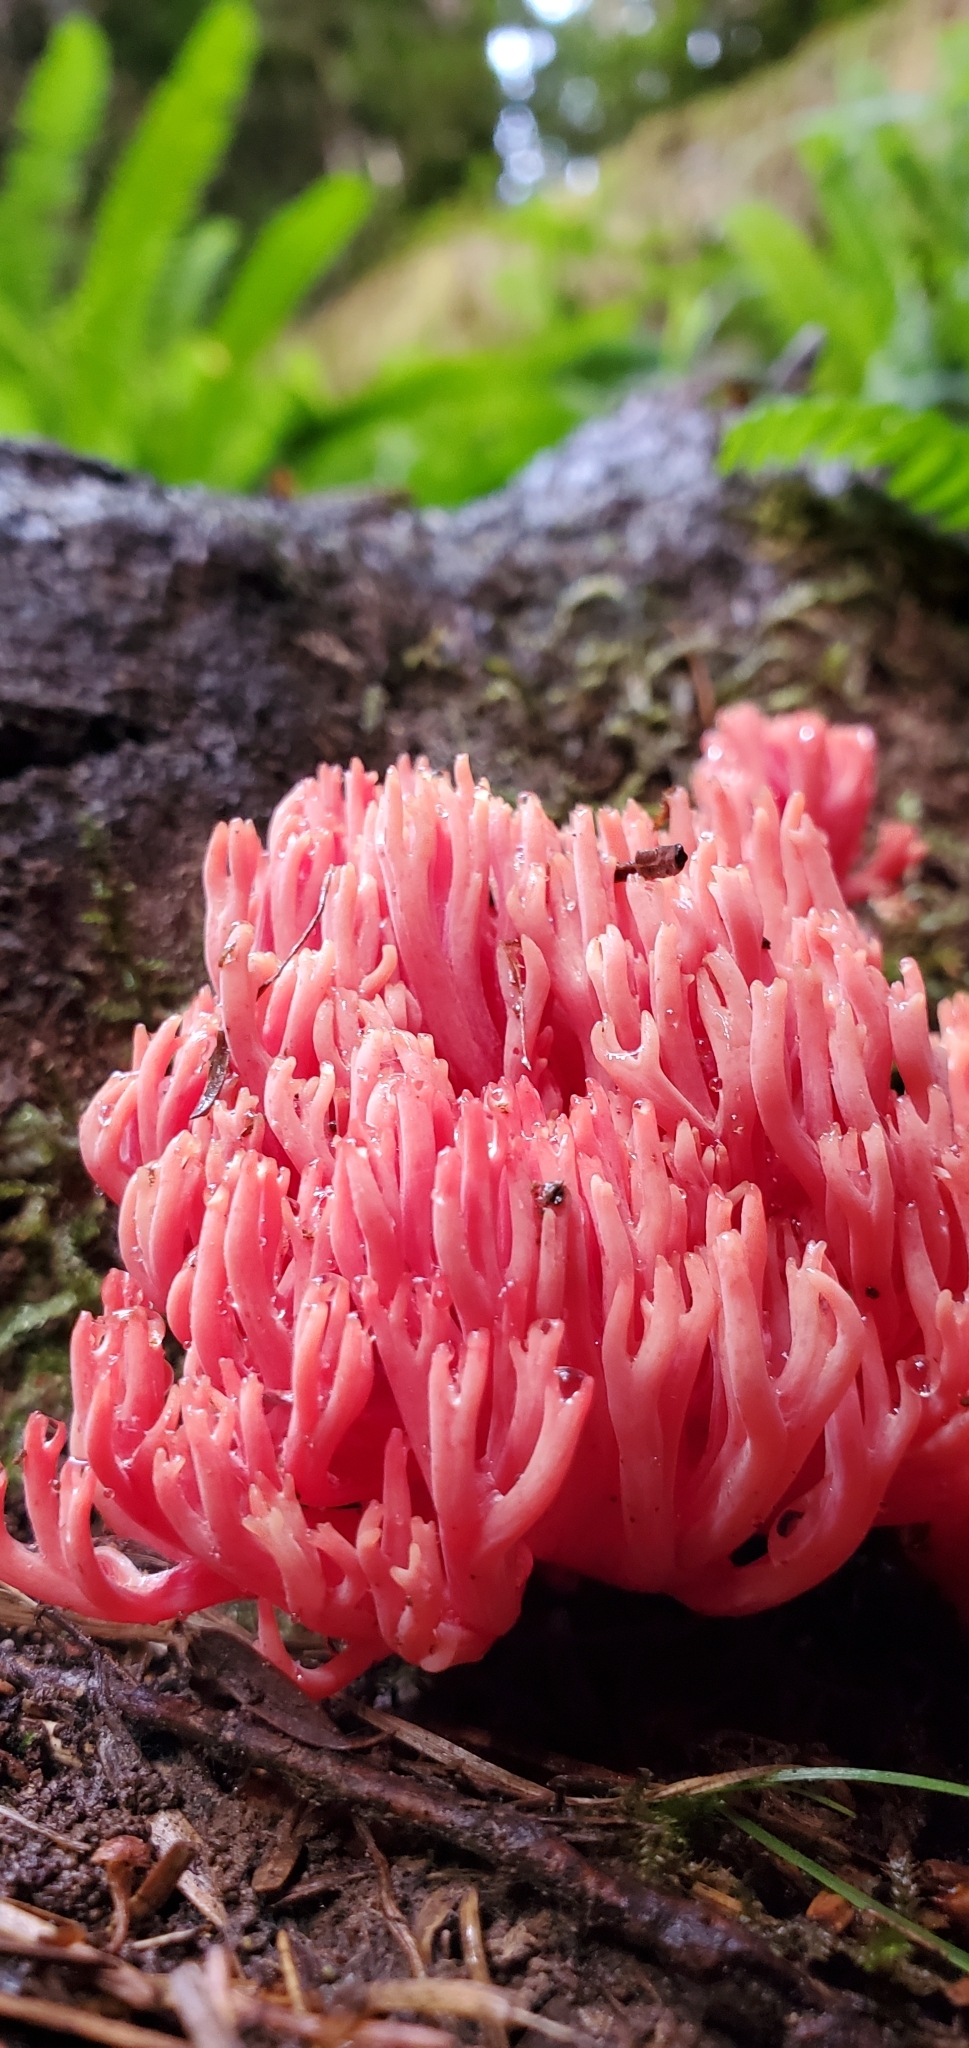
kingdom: Fungi
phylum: Basidiomycota
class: Agaricomycetes
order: Gomphales
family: Gomphaceae
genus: Ramaria
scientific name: Ramaria araiospora
